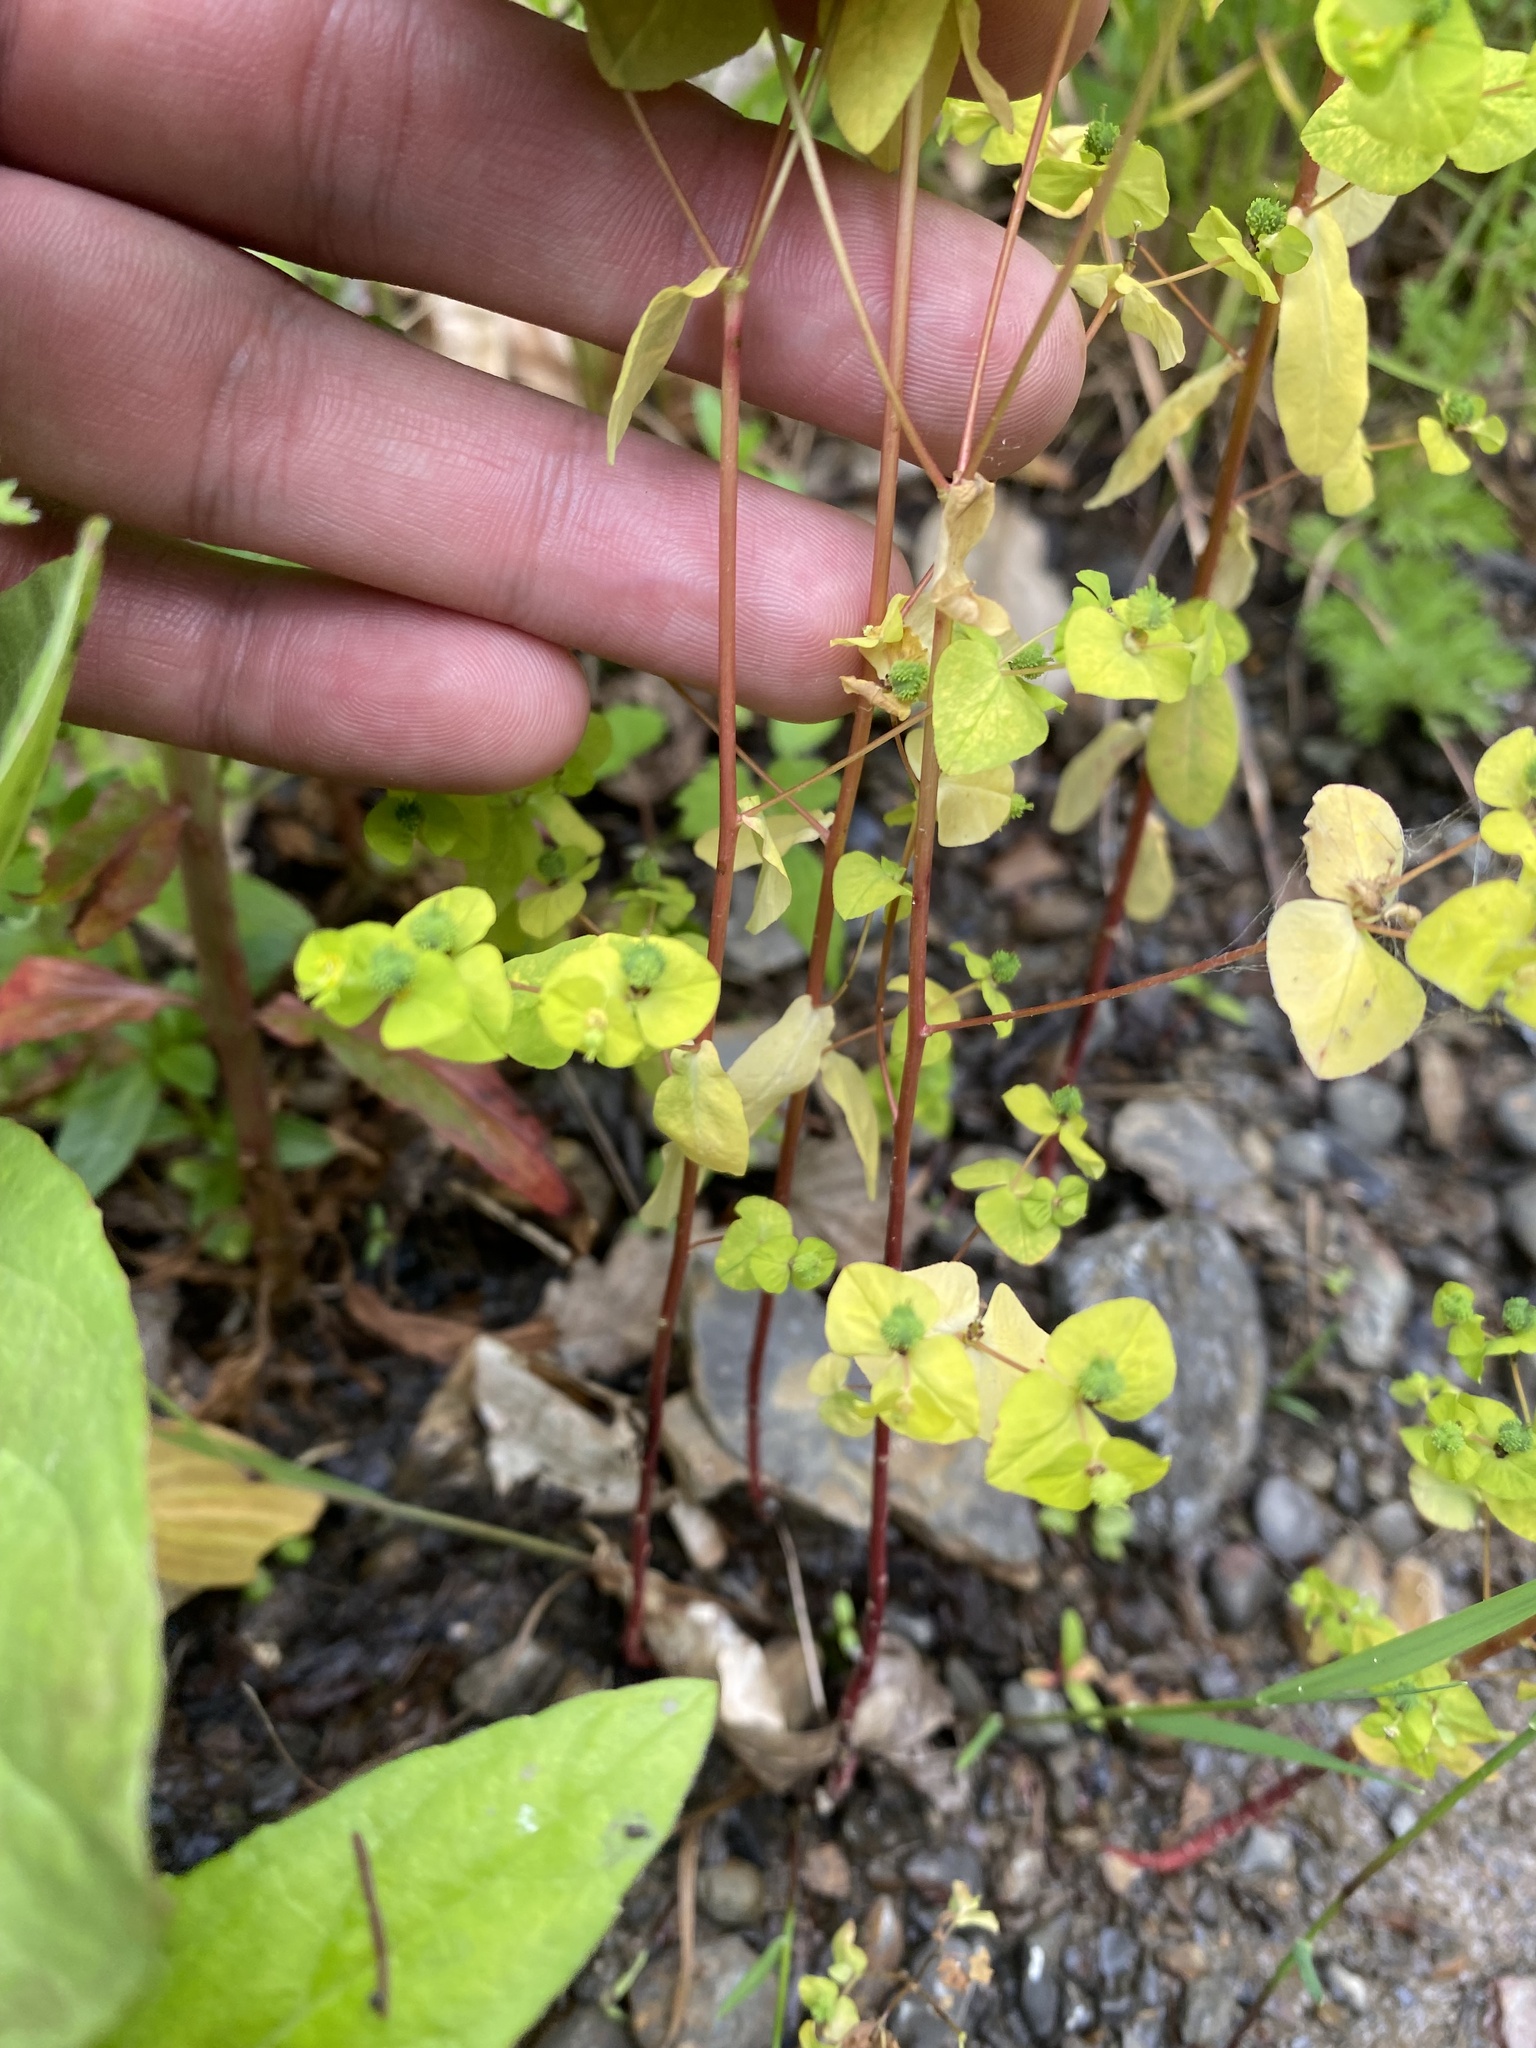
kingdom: Plantae
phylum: Tracheophyta
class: Magnoliopsida
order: Malpighiales
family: Euphorbiaceae
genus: Euphorbia
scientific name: Euphorbia stricta
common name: Upright spurge
